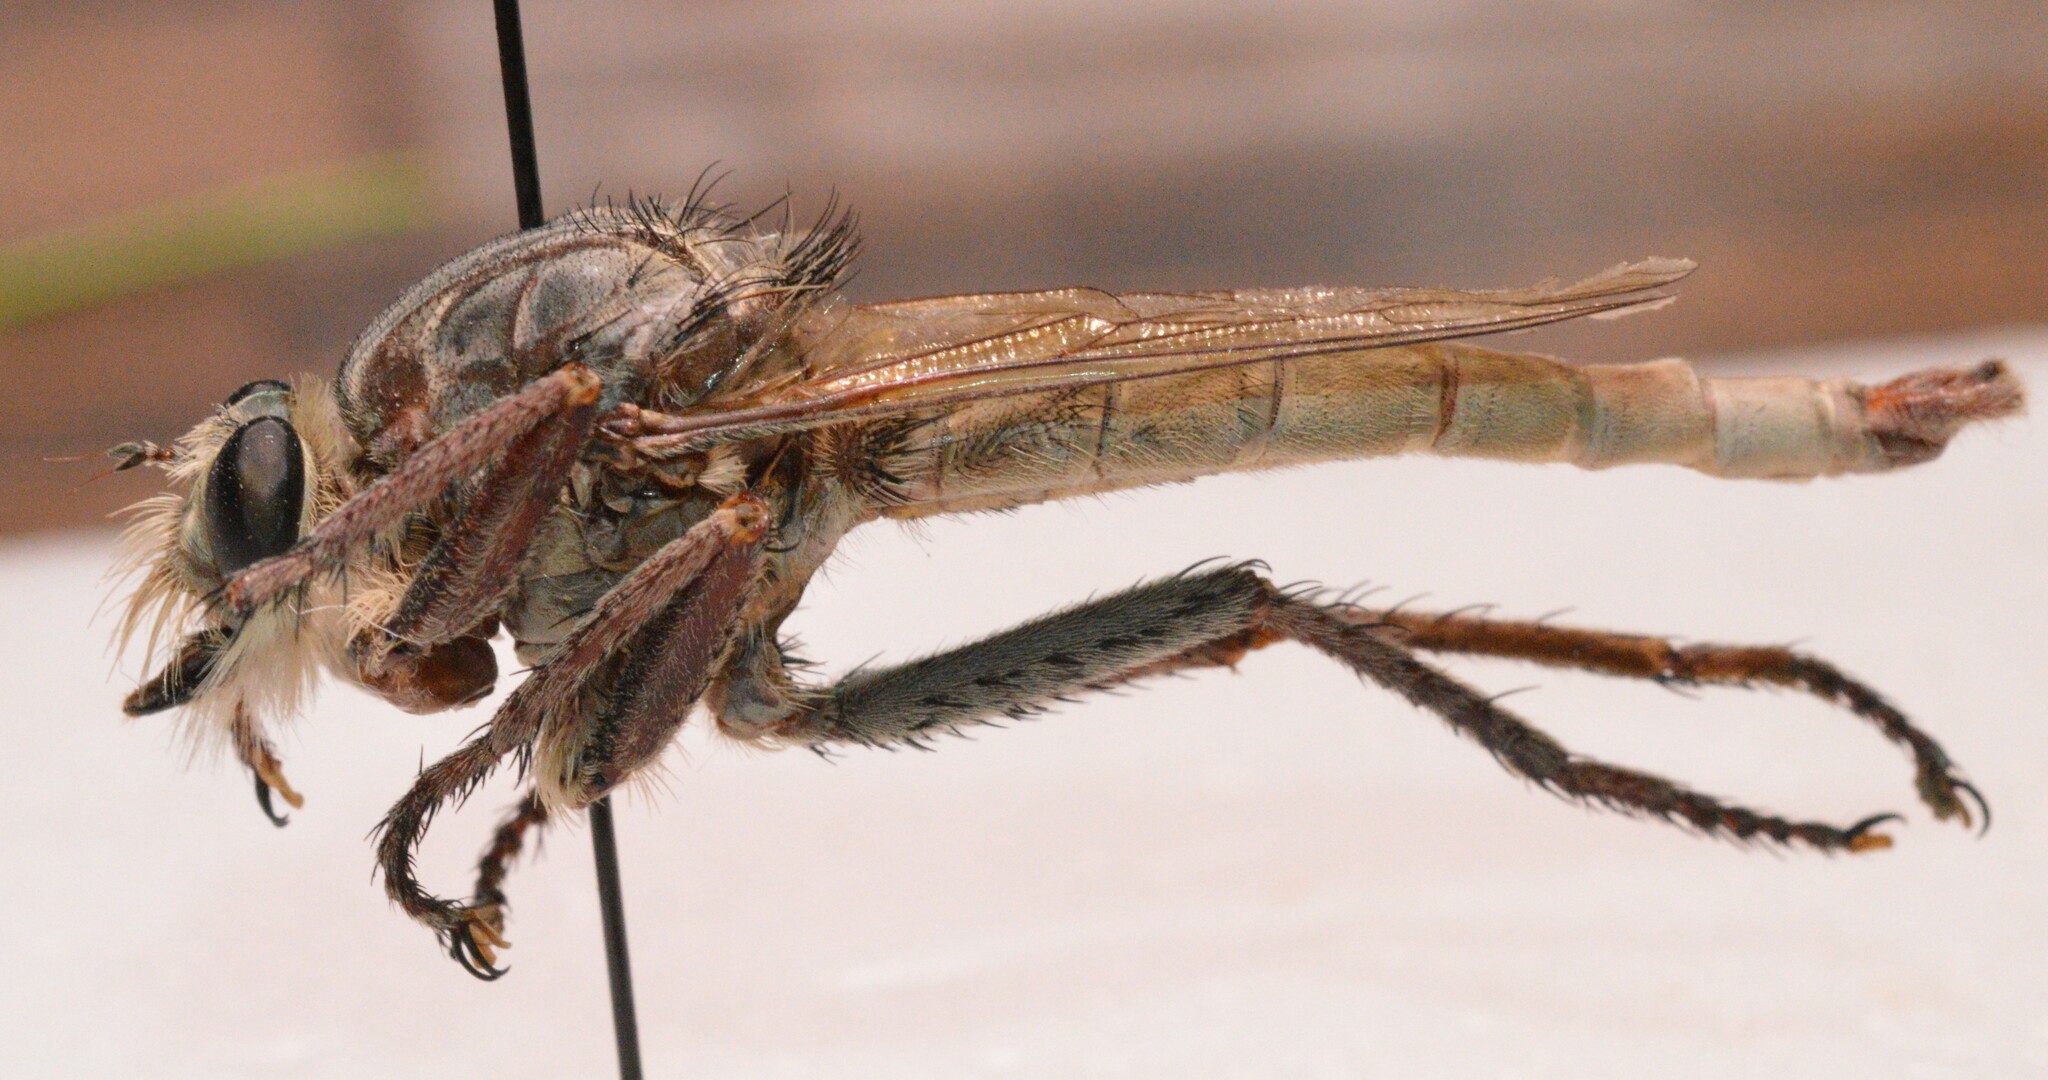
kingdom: Animalia
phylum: Arthropoda
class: Insecta
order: Diptera
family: Asilidae
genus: Proctacanthus
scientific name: Proctacanthus milbertii
